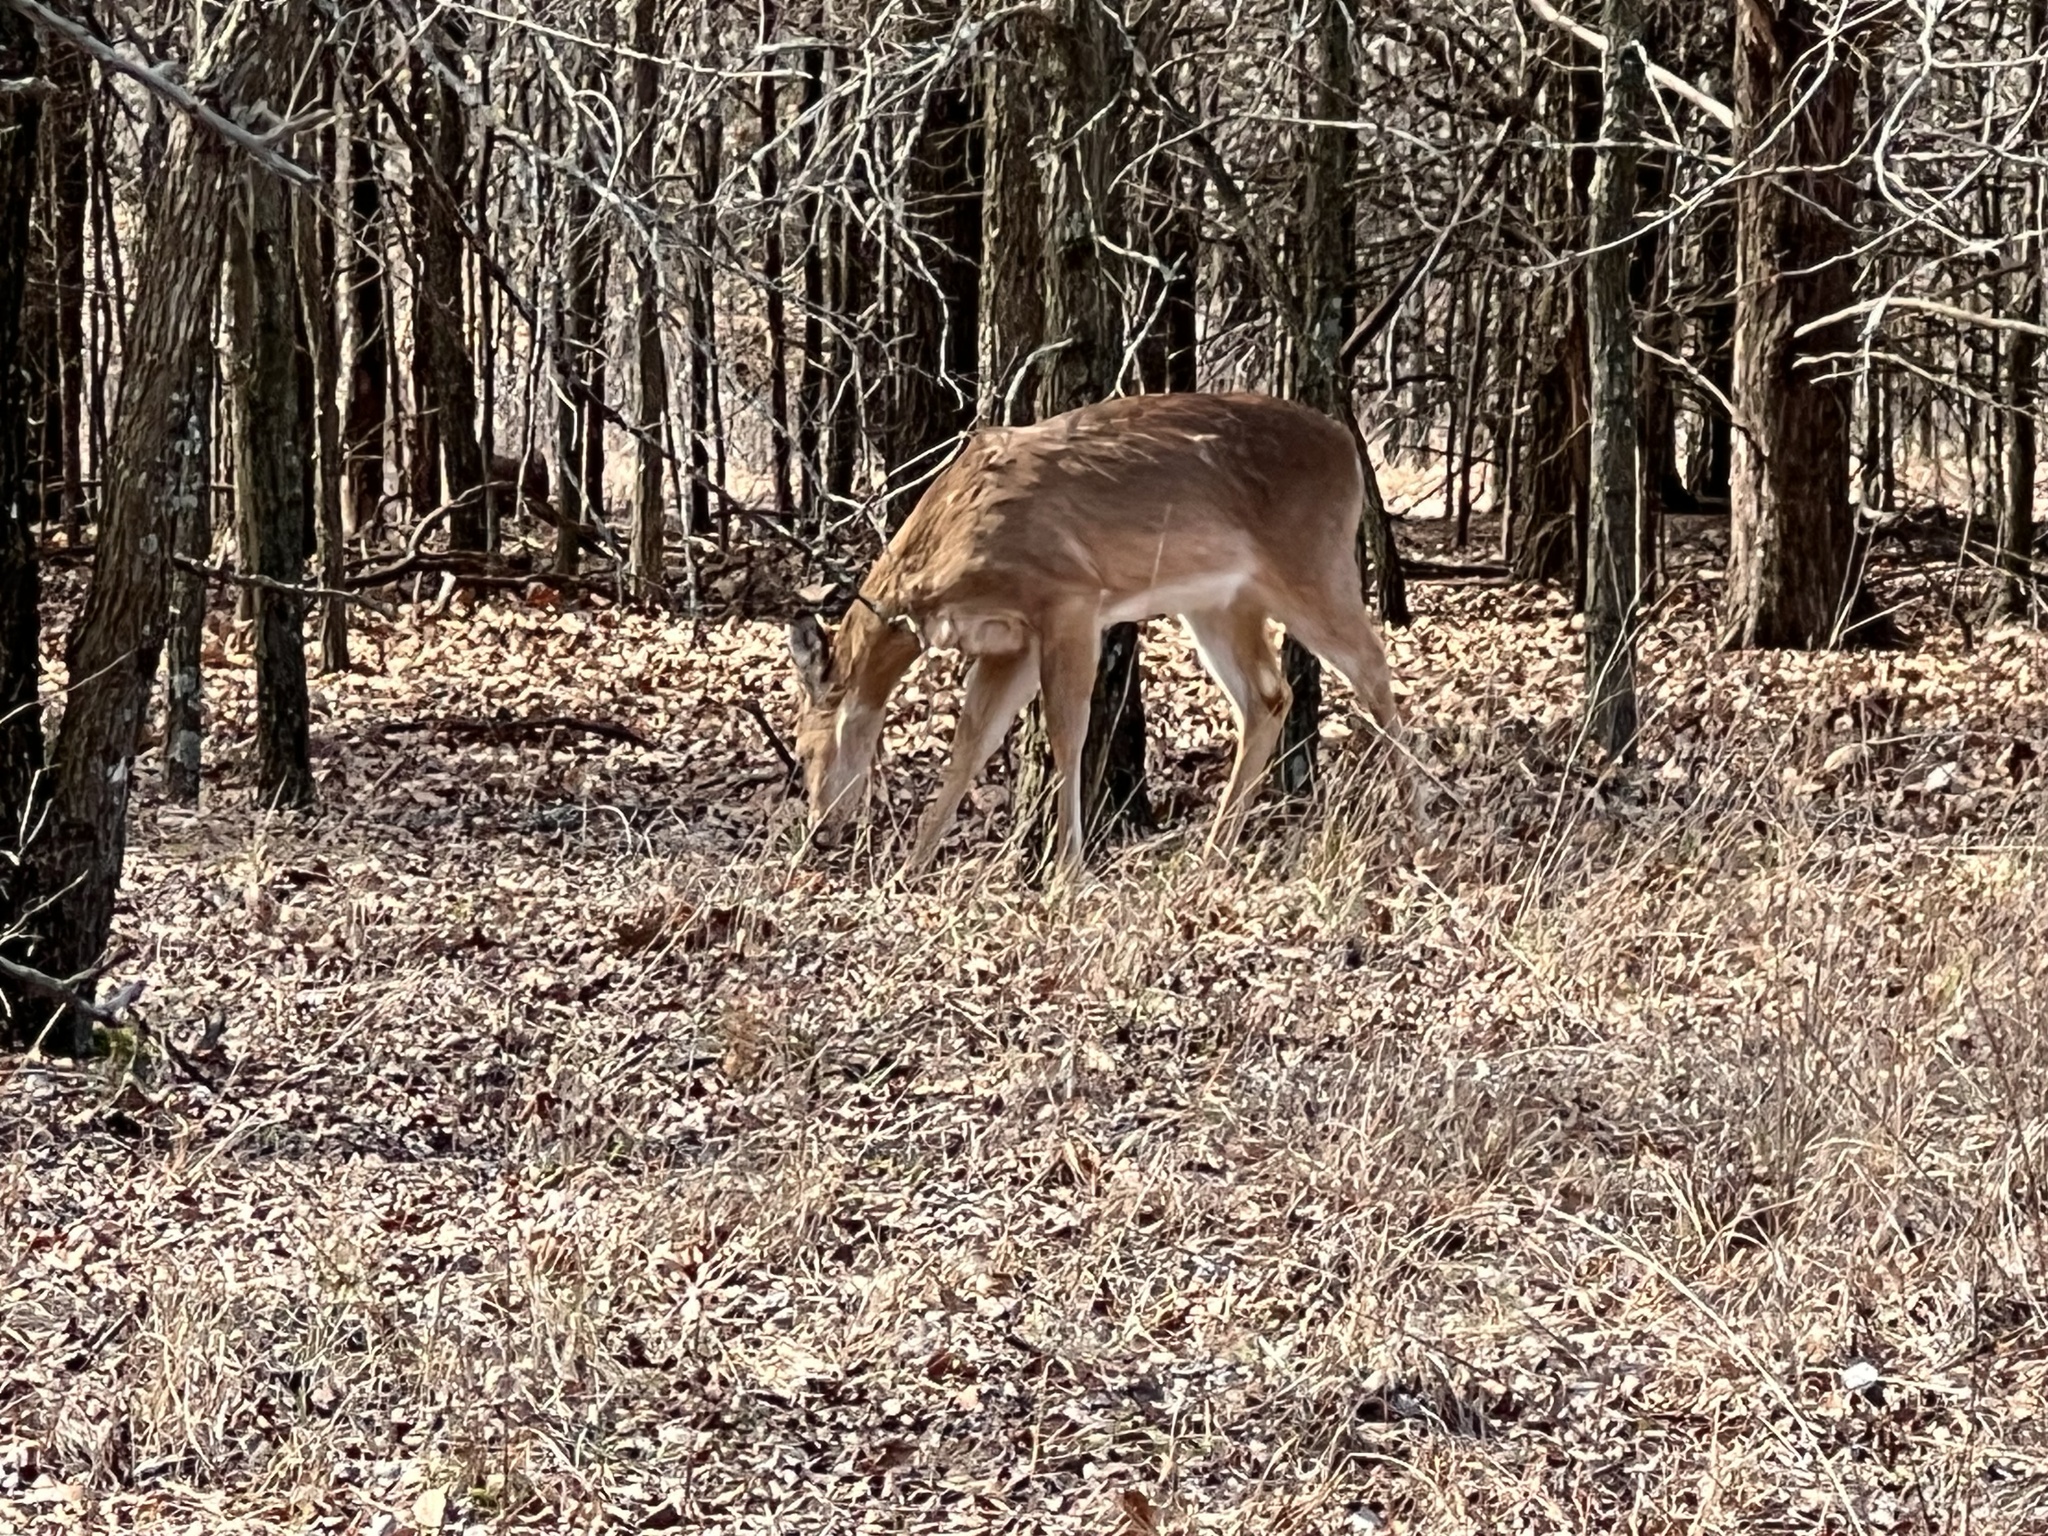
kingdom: Animalia
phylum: Chordata
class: Mammalia
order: Artiodactyla
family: Cervidae
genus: Odocoileus
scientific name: Odocoileus virginianus
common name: White-tailed deer
